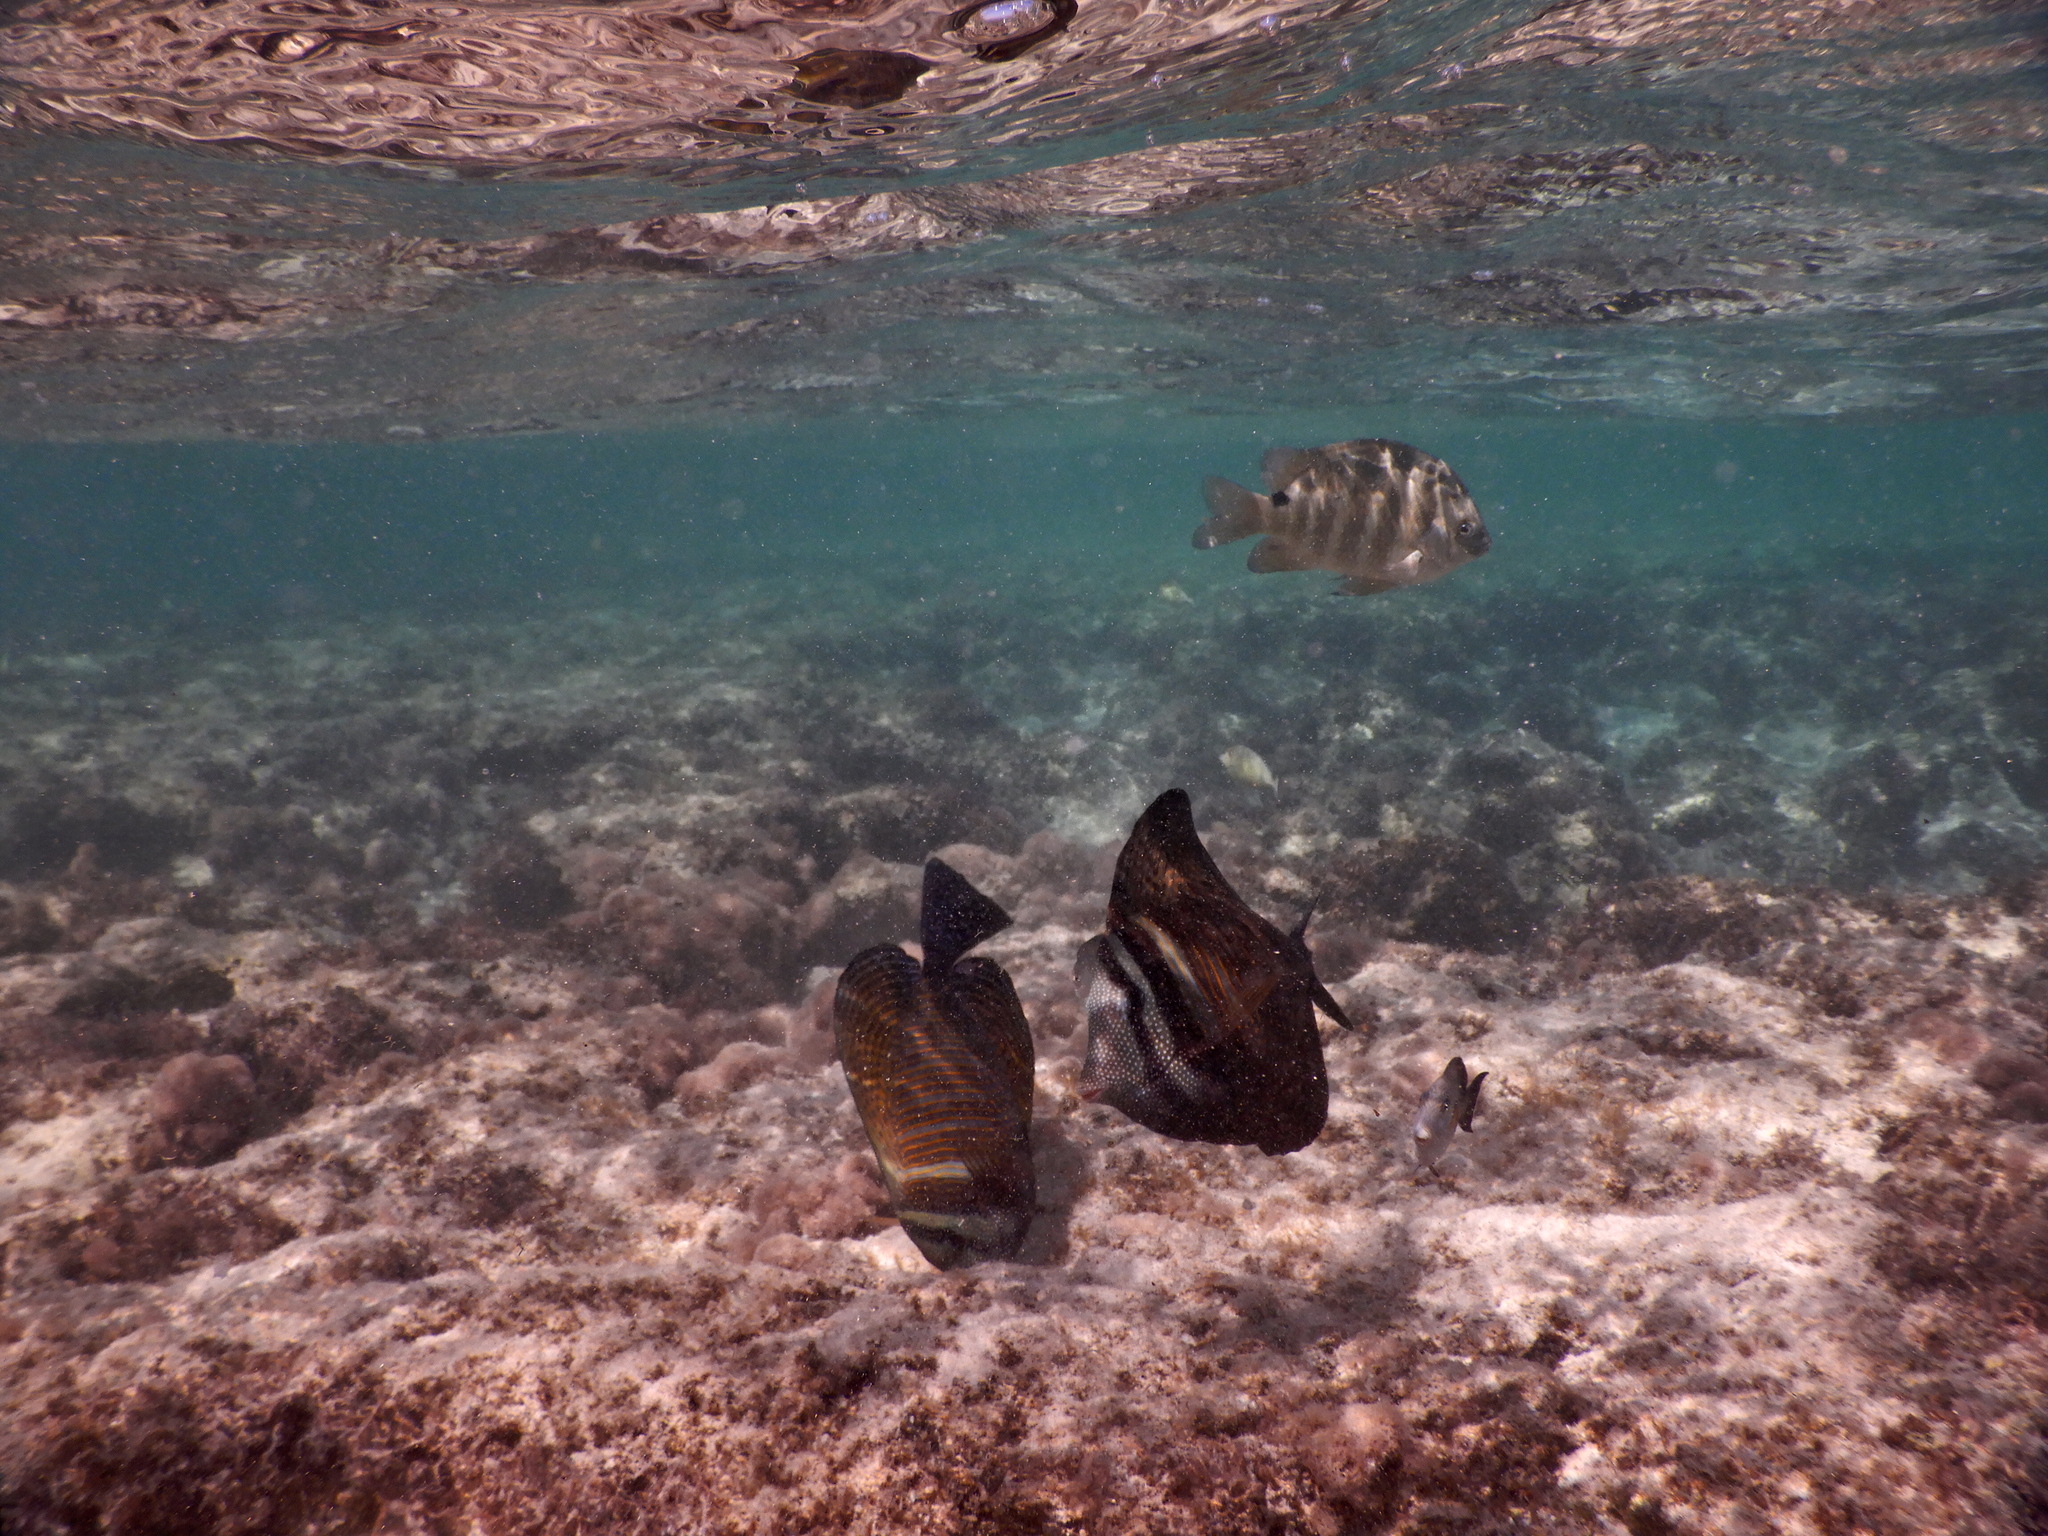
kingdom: Animalia
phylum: Chordata
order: Perciformes
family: Acanthuridae
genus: Zebrasoma
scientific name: Zebrasoma desjardinii
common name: Desjardin's sailfin tang
